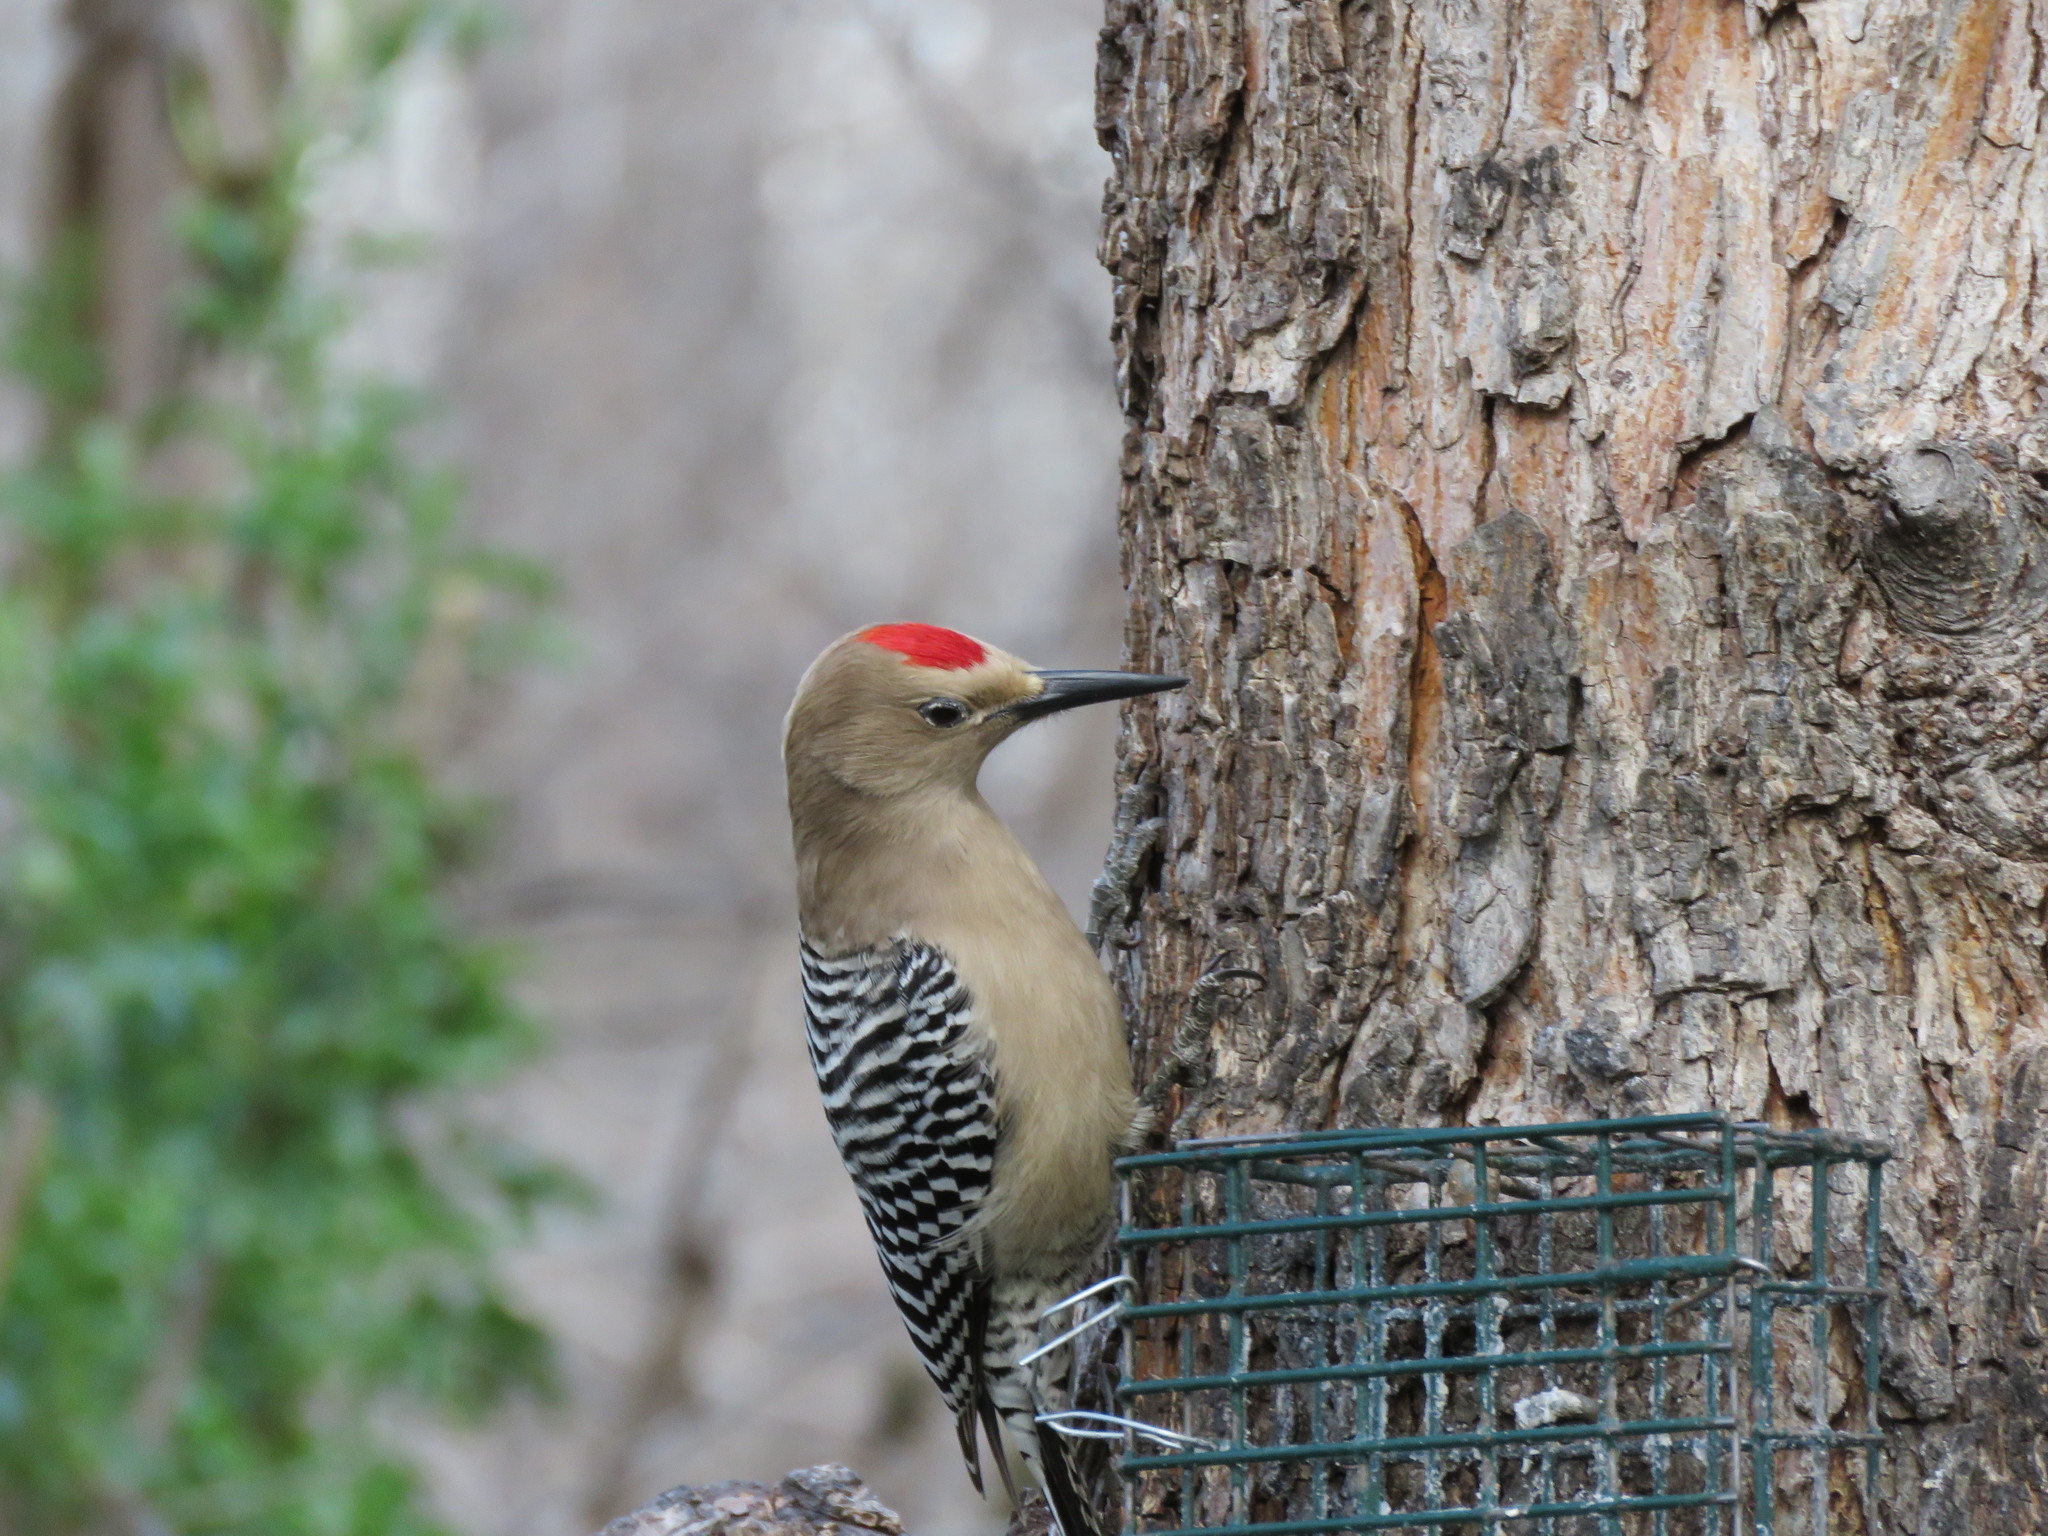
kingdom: Animalia
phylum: Chordata
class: Aves
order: Piciformes
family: Picidae
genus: Melanerpes
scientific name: Melanerpes uropygialis
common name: Gila woodpecker
